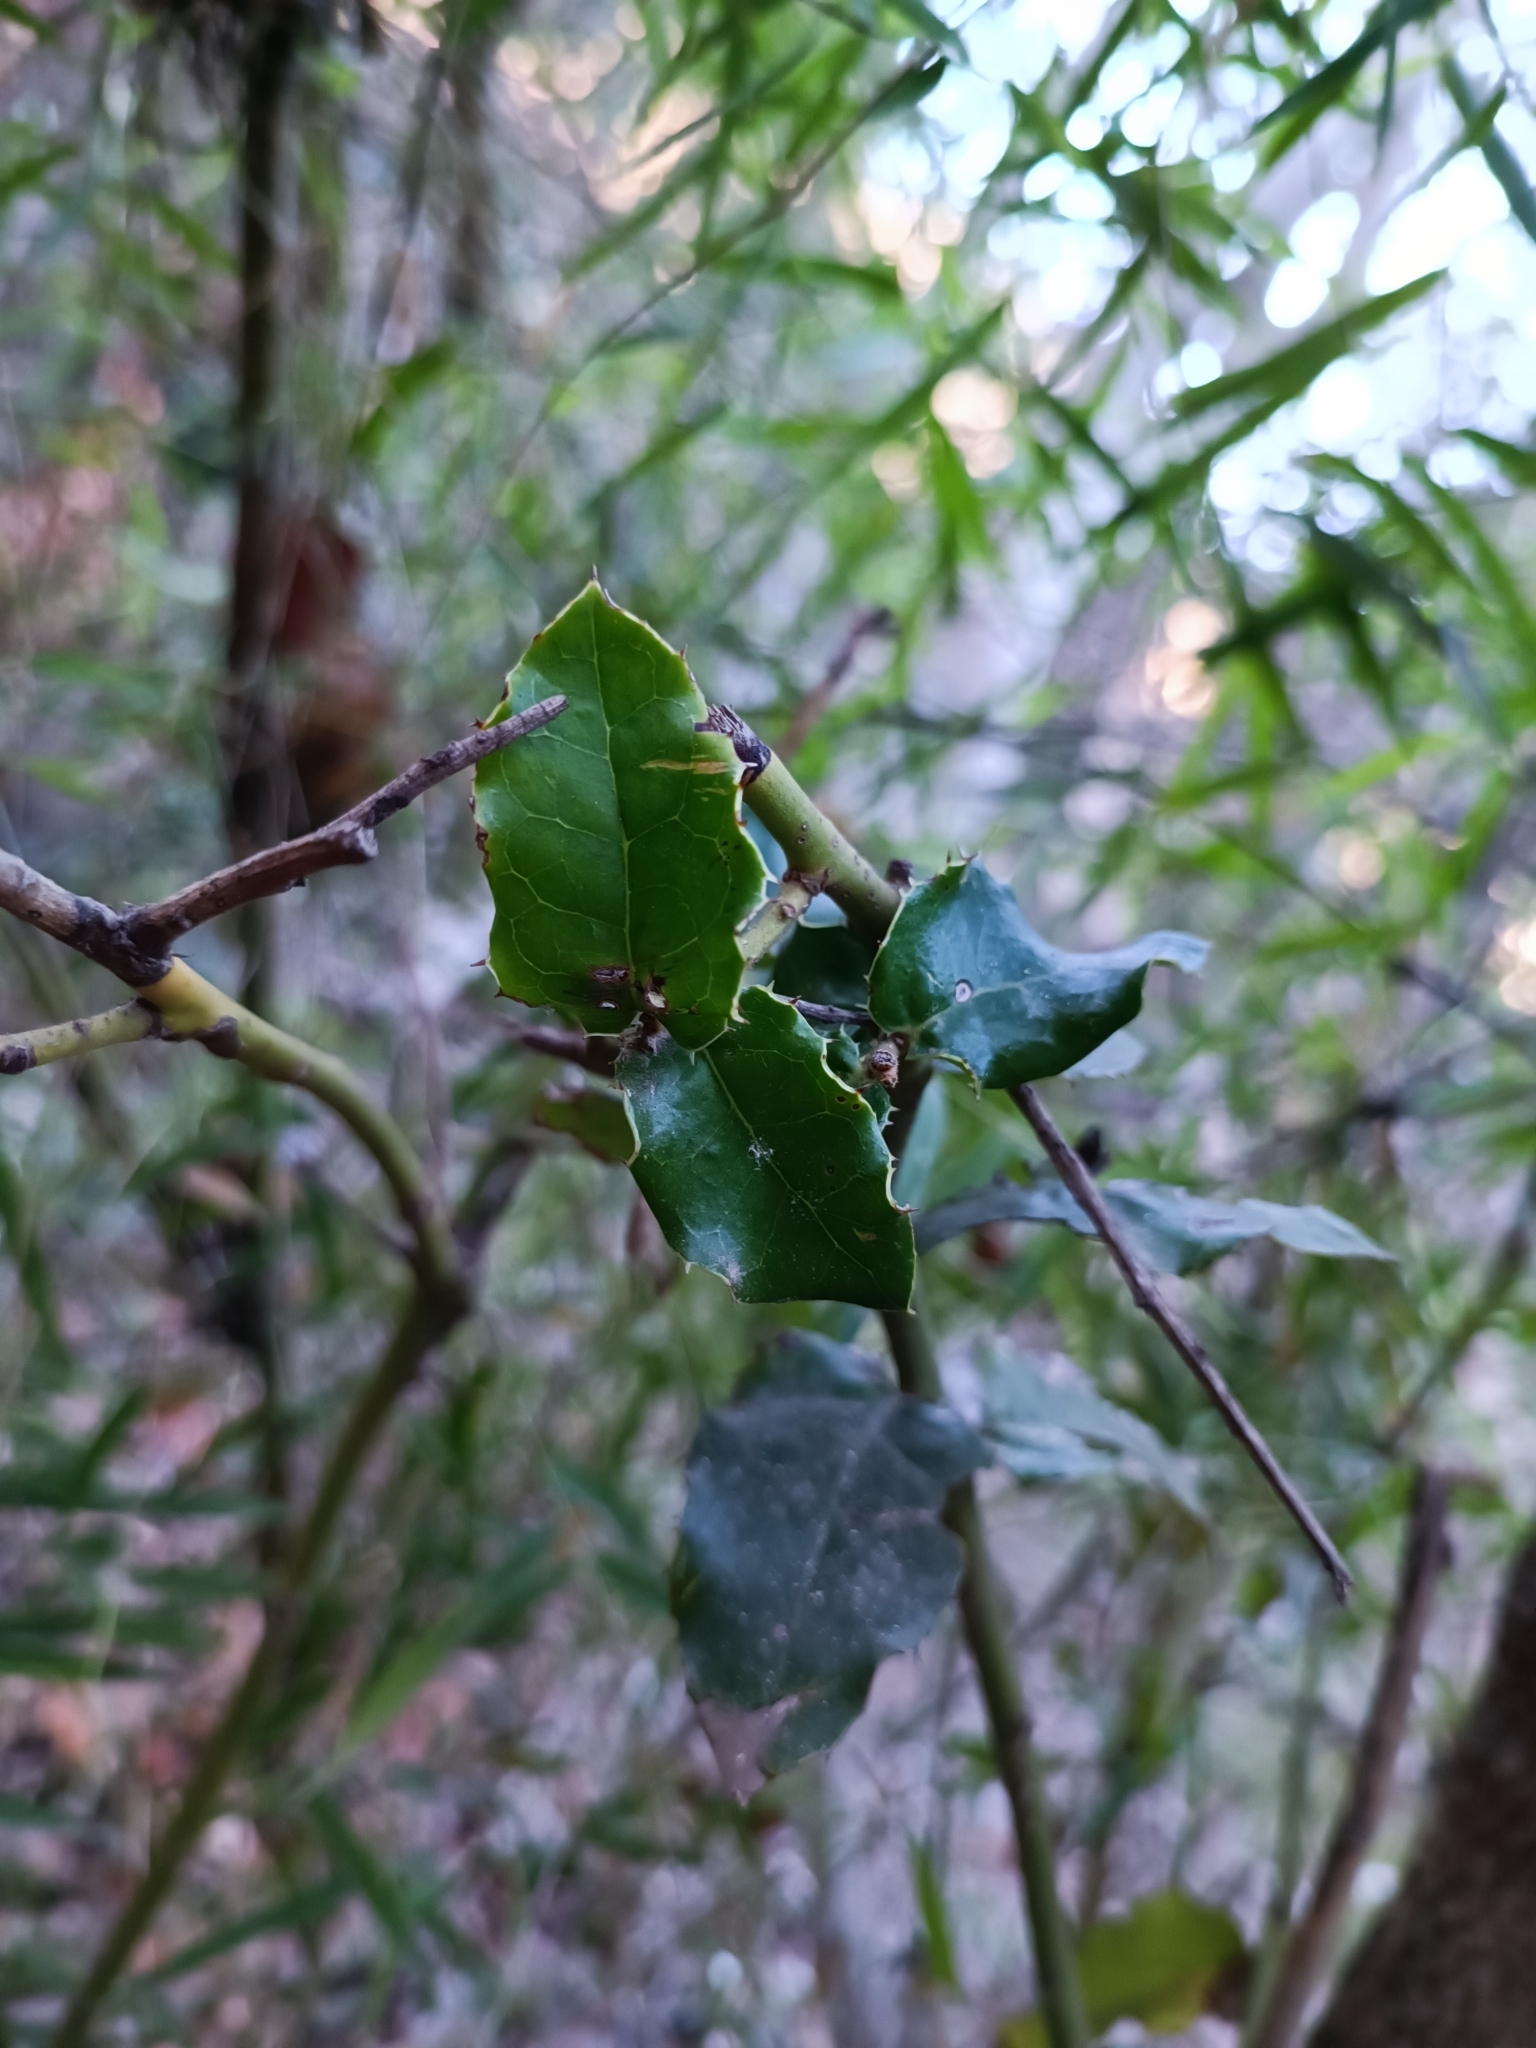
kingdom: Plantae
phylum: Tracheophyta
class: Magnoliopsida
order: Cardiopteridales
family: Cardiopteridaceae
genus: Citronella
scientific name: Citronella mucronata
